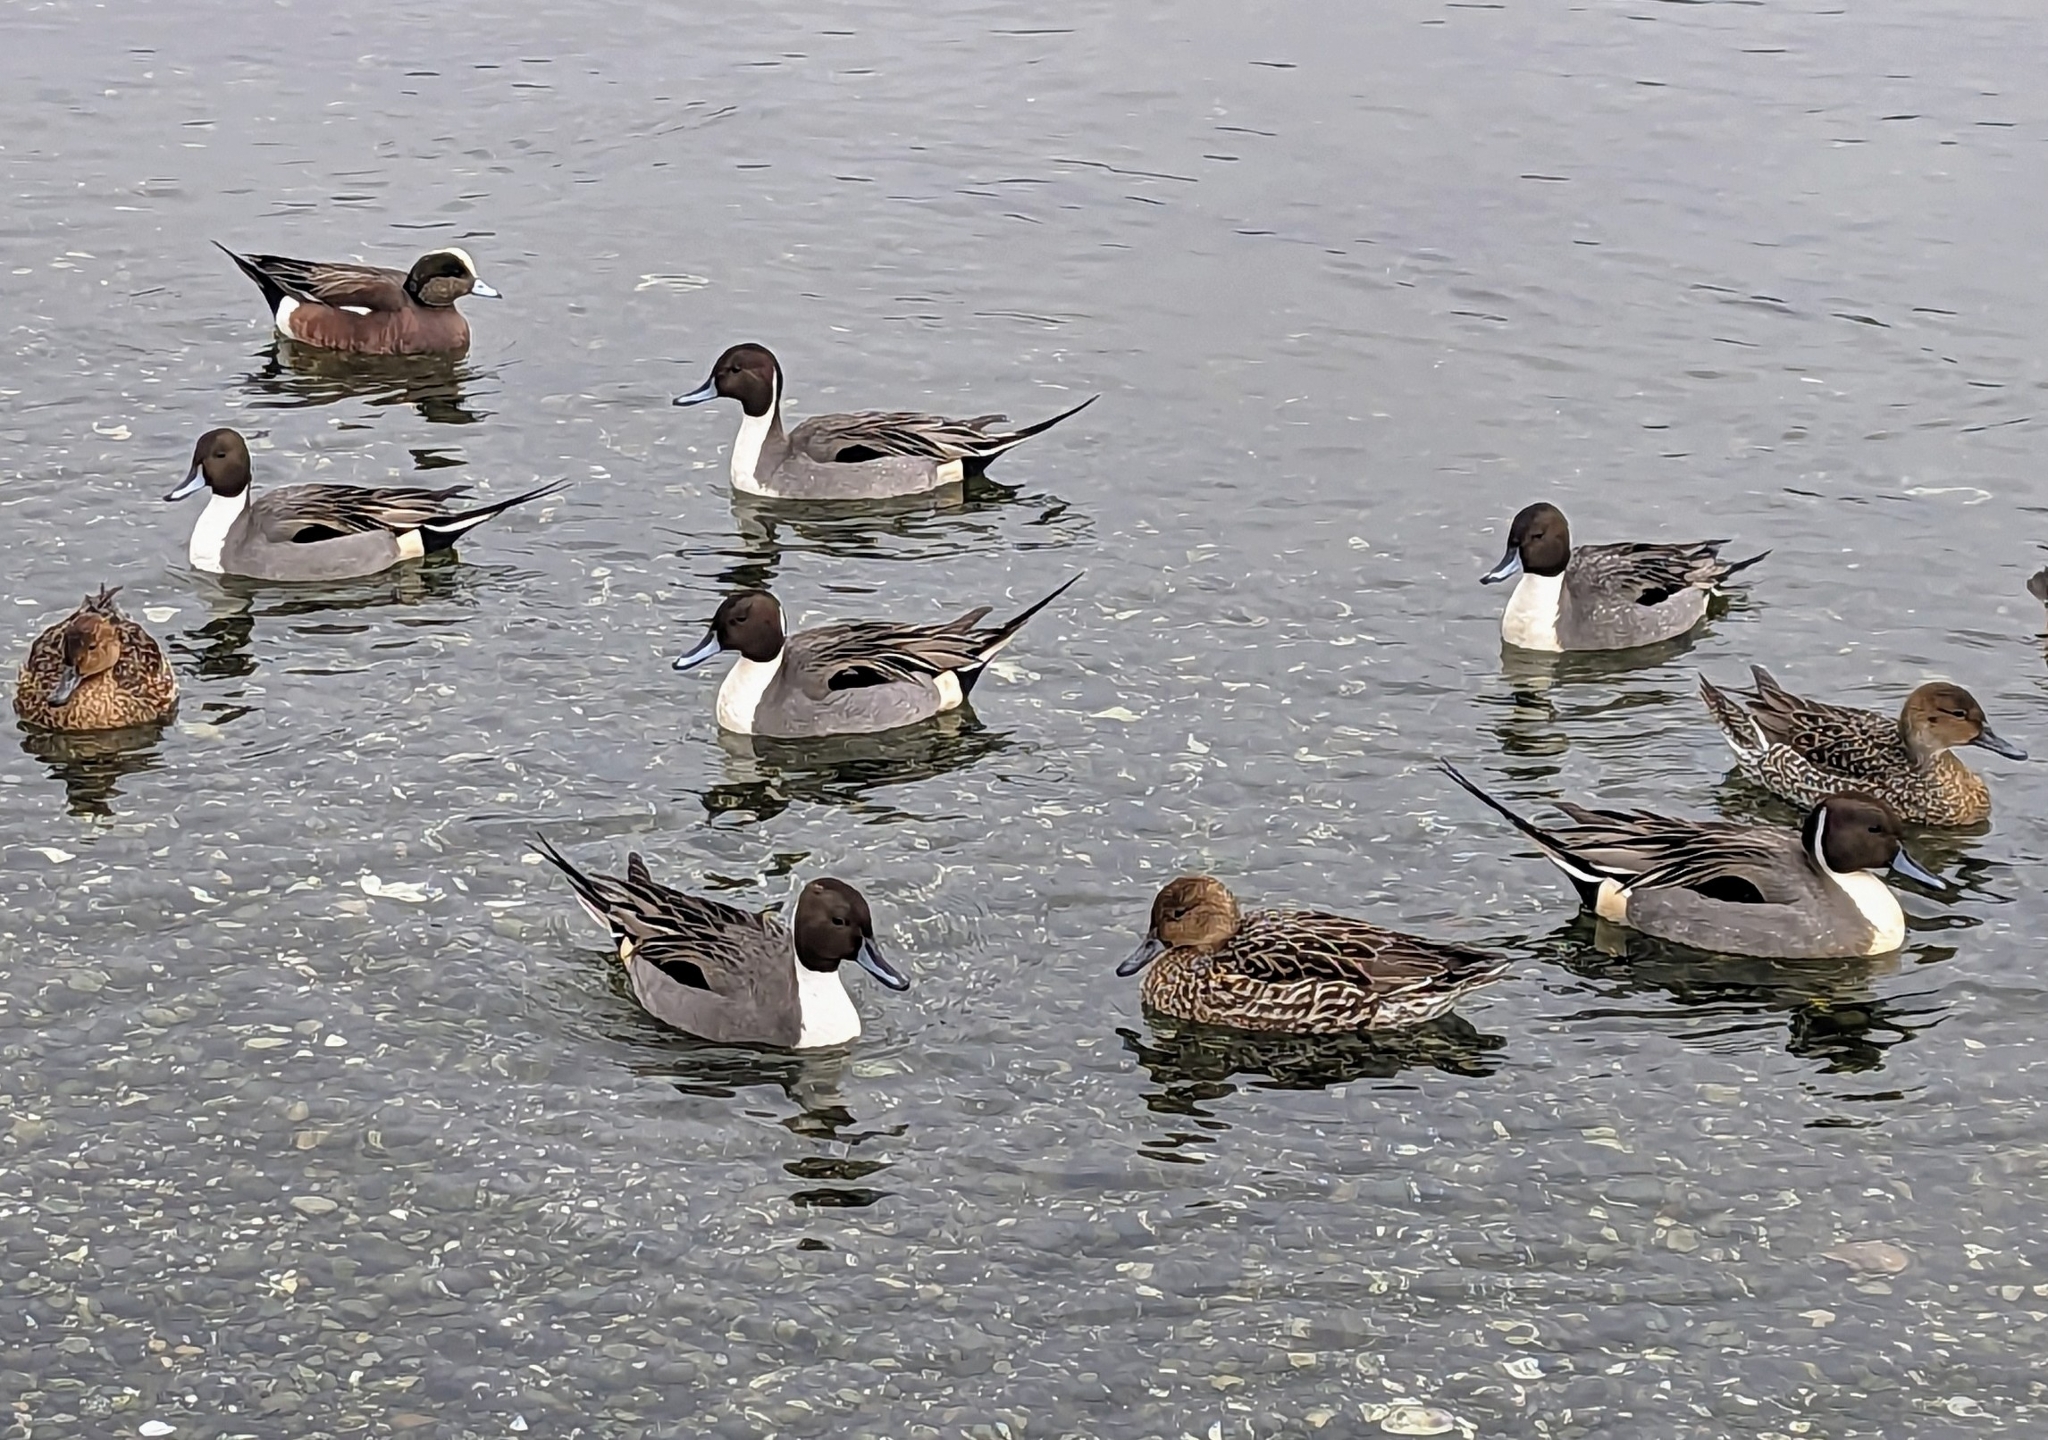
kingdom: Animalia
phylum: Chordata
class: Aves
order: Anseriformes
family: Anatidae
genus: Anas
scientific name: Anas acuta
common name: Northern pintail
